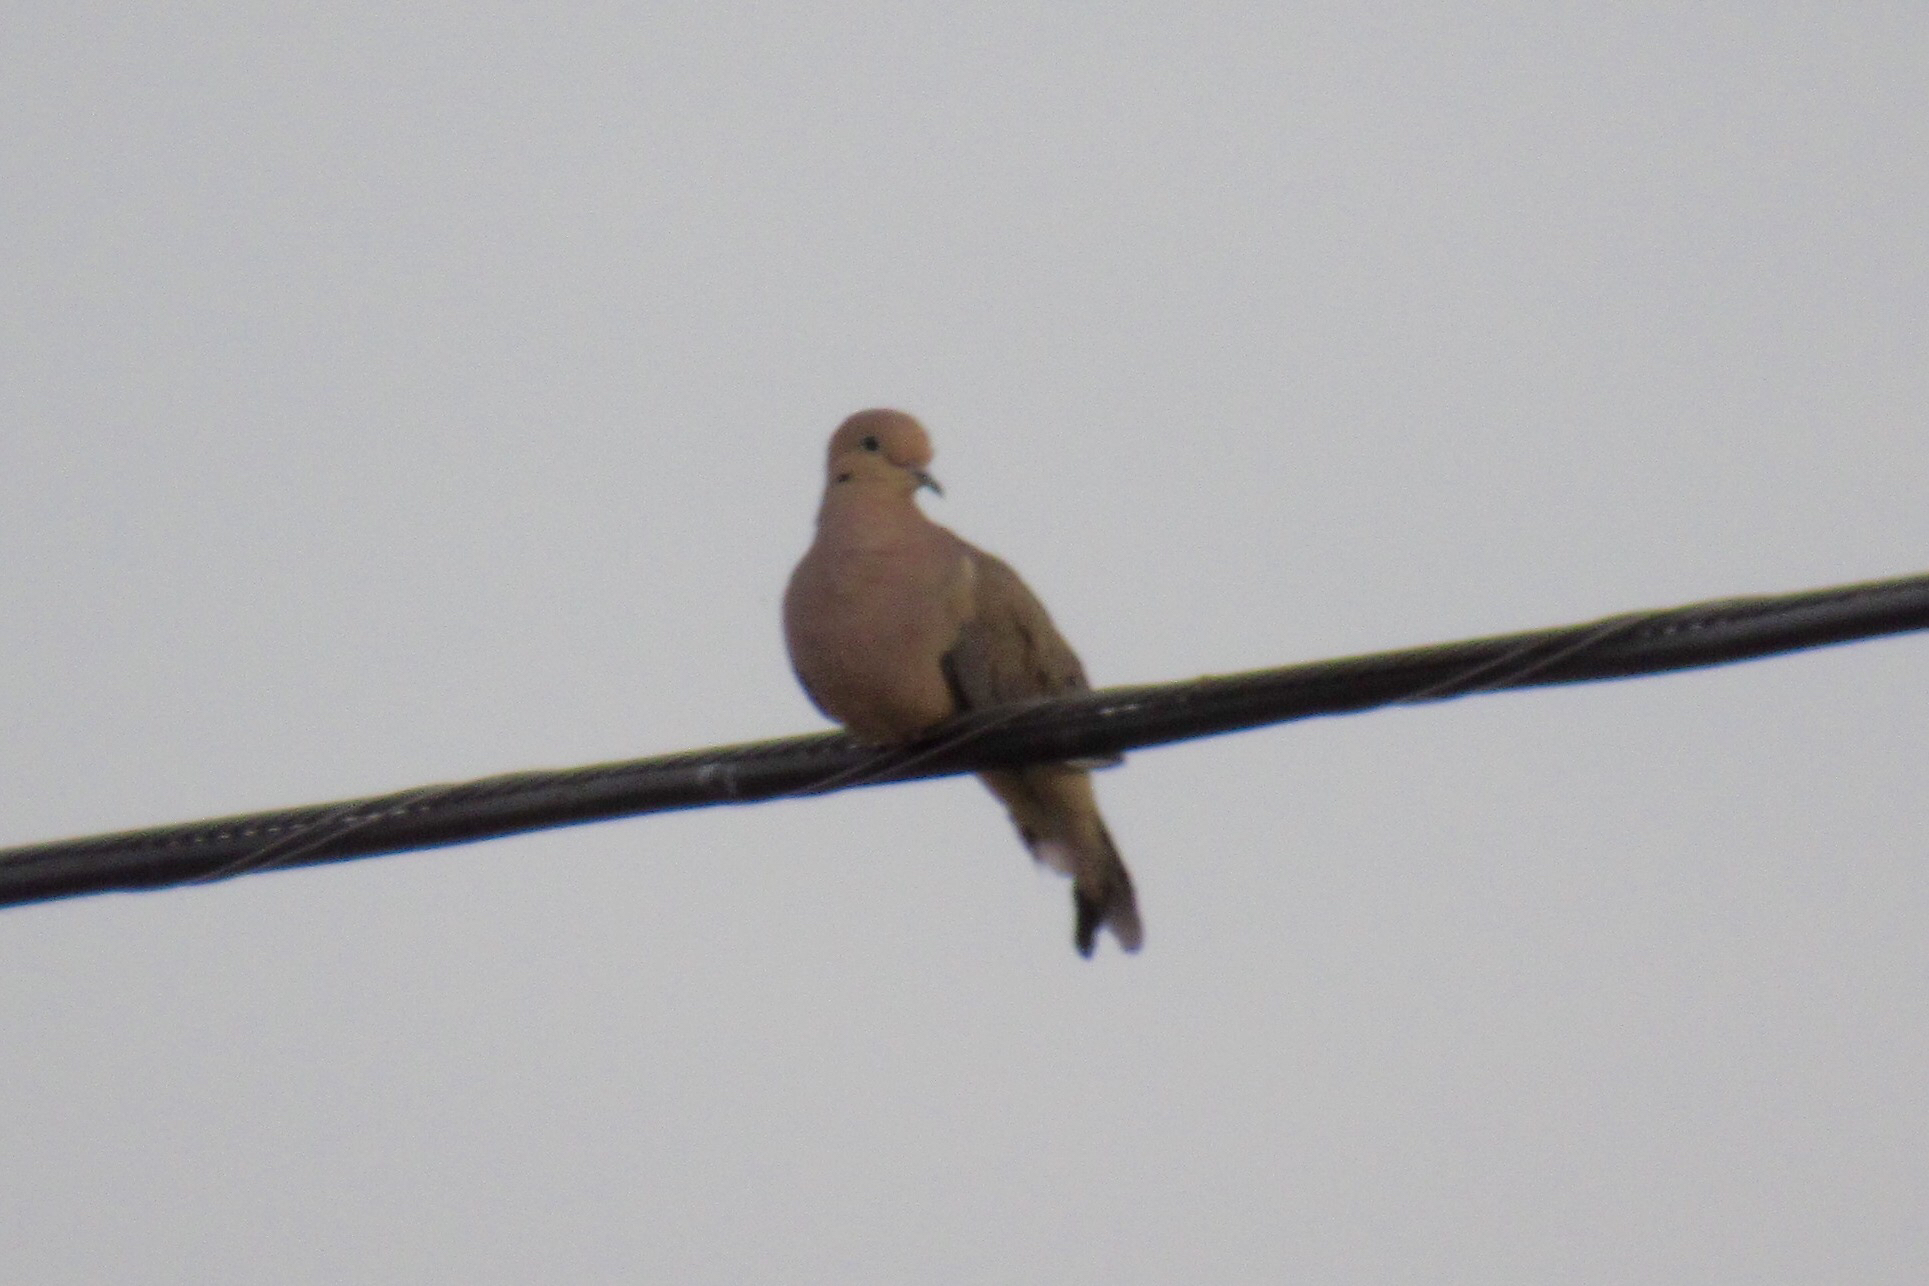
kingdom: Animalia
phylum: Chordata
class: Aves
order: Columbiformes
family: Columbidae
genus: Zenaida
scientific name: Zenaida macroura
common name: Mourning dove
